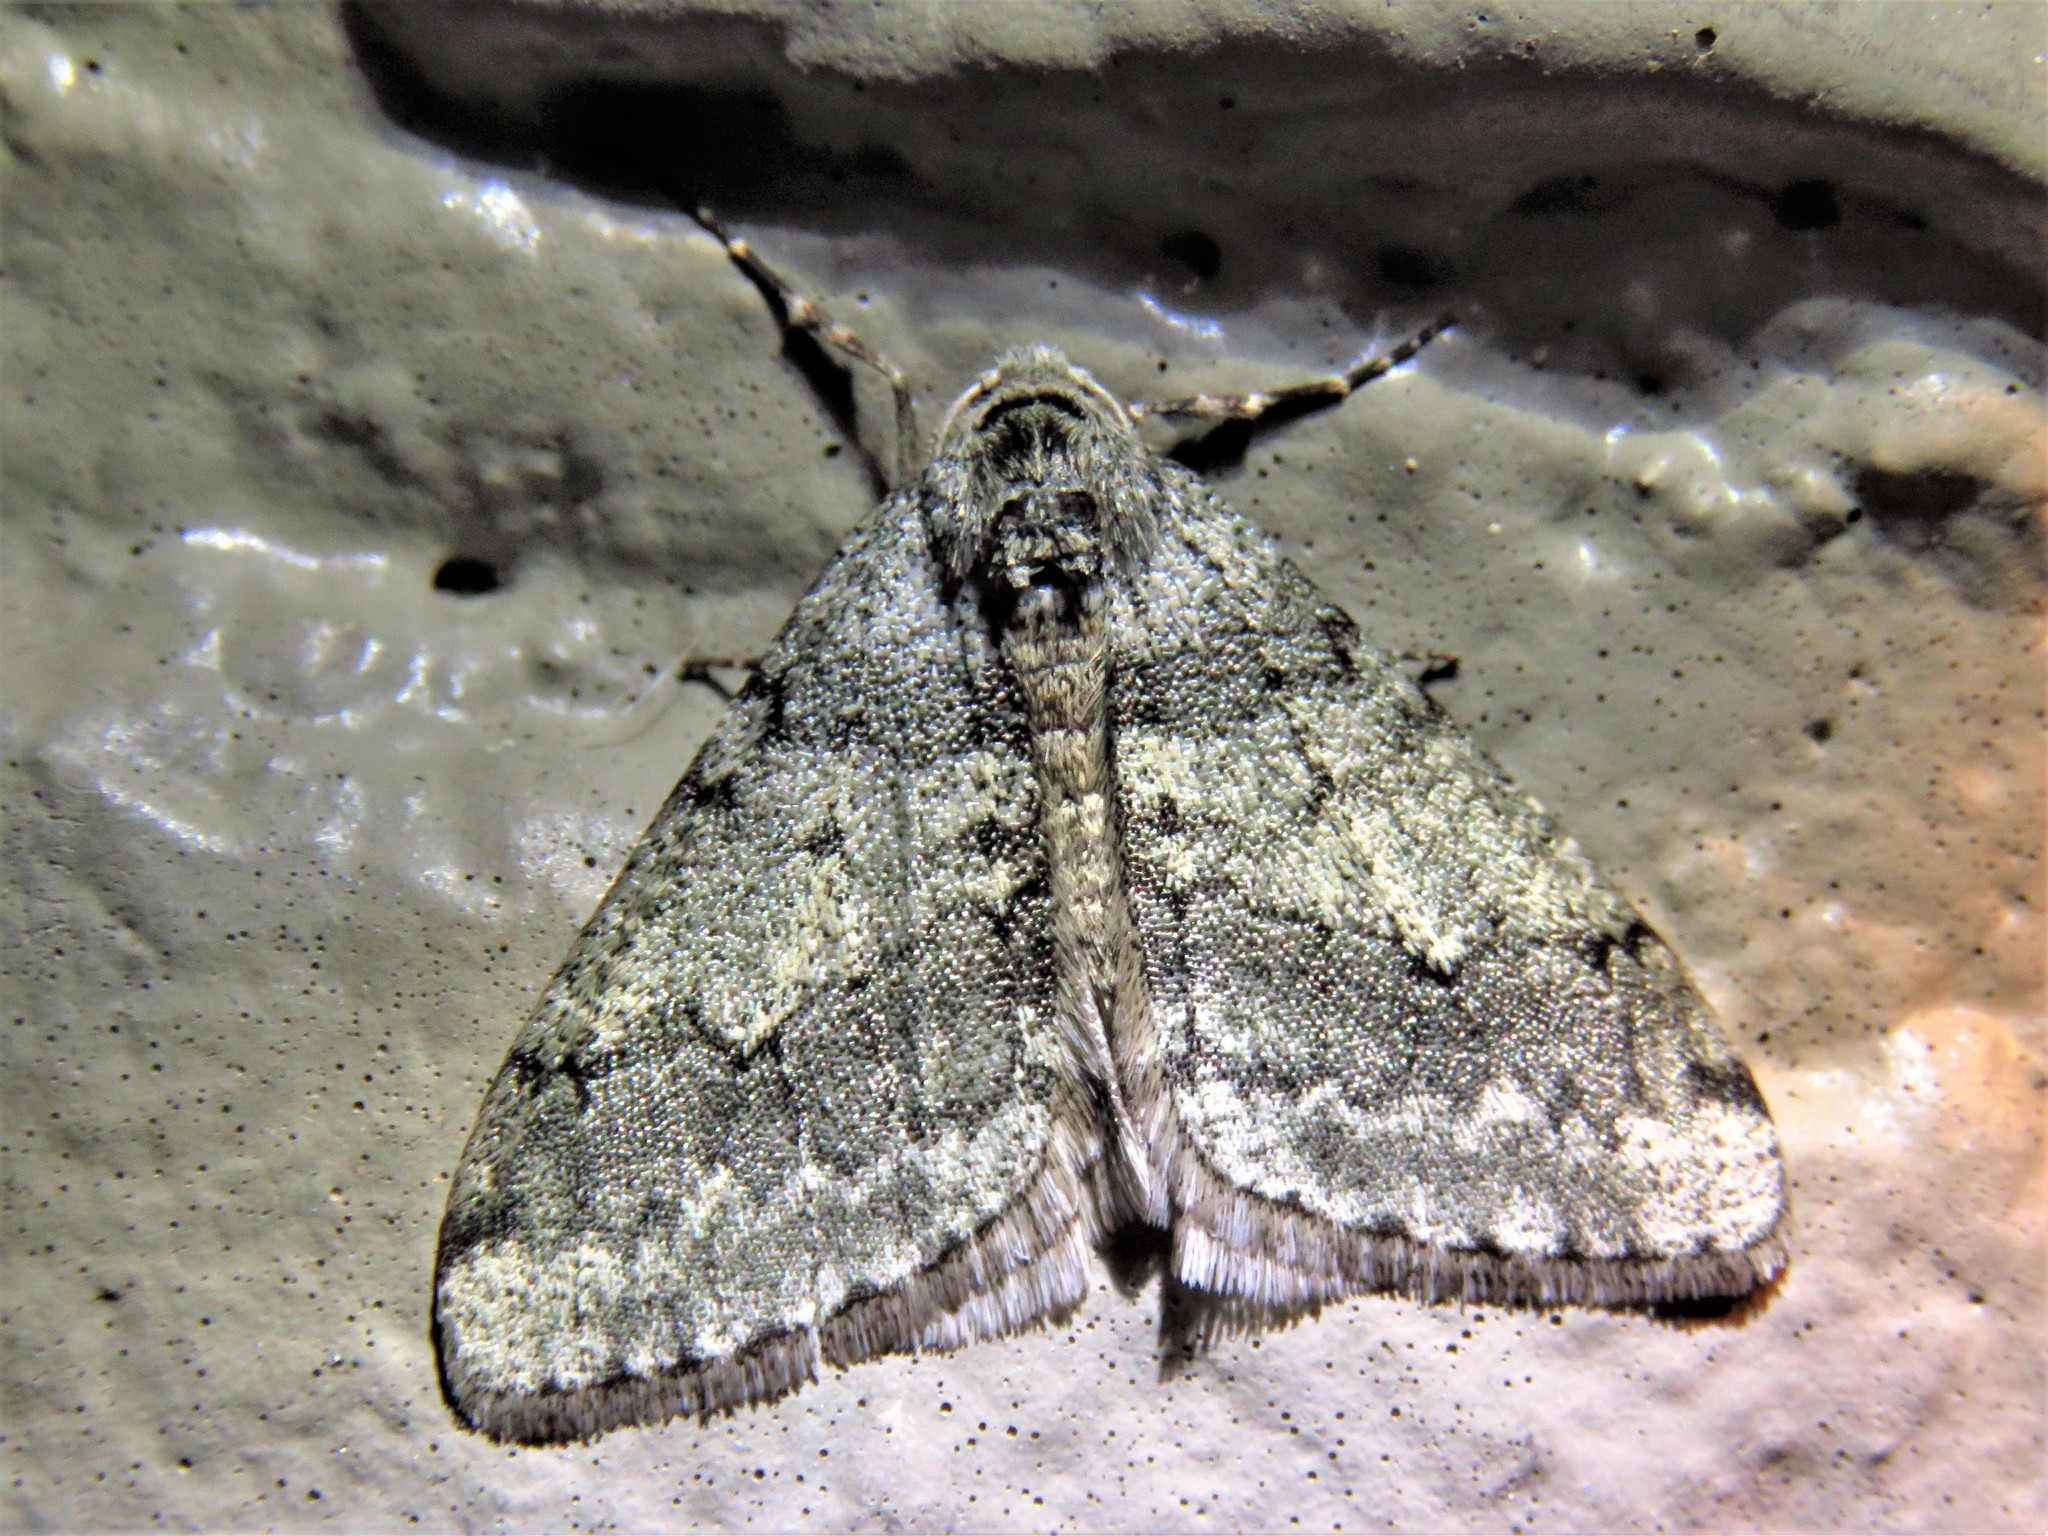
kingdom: Animalia
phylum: Arthropoda
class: Insecta
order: Lepidoptera
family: Geometridae
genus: Phigalia
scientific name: Phigalia strigataria
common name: Small phigalia
